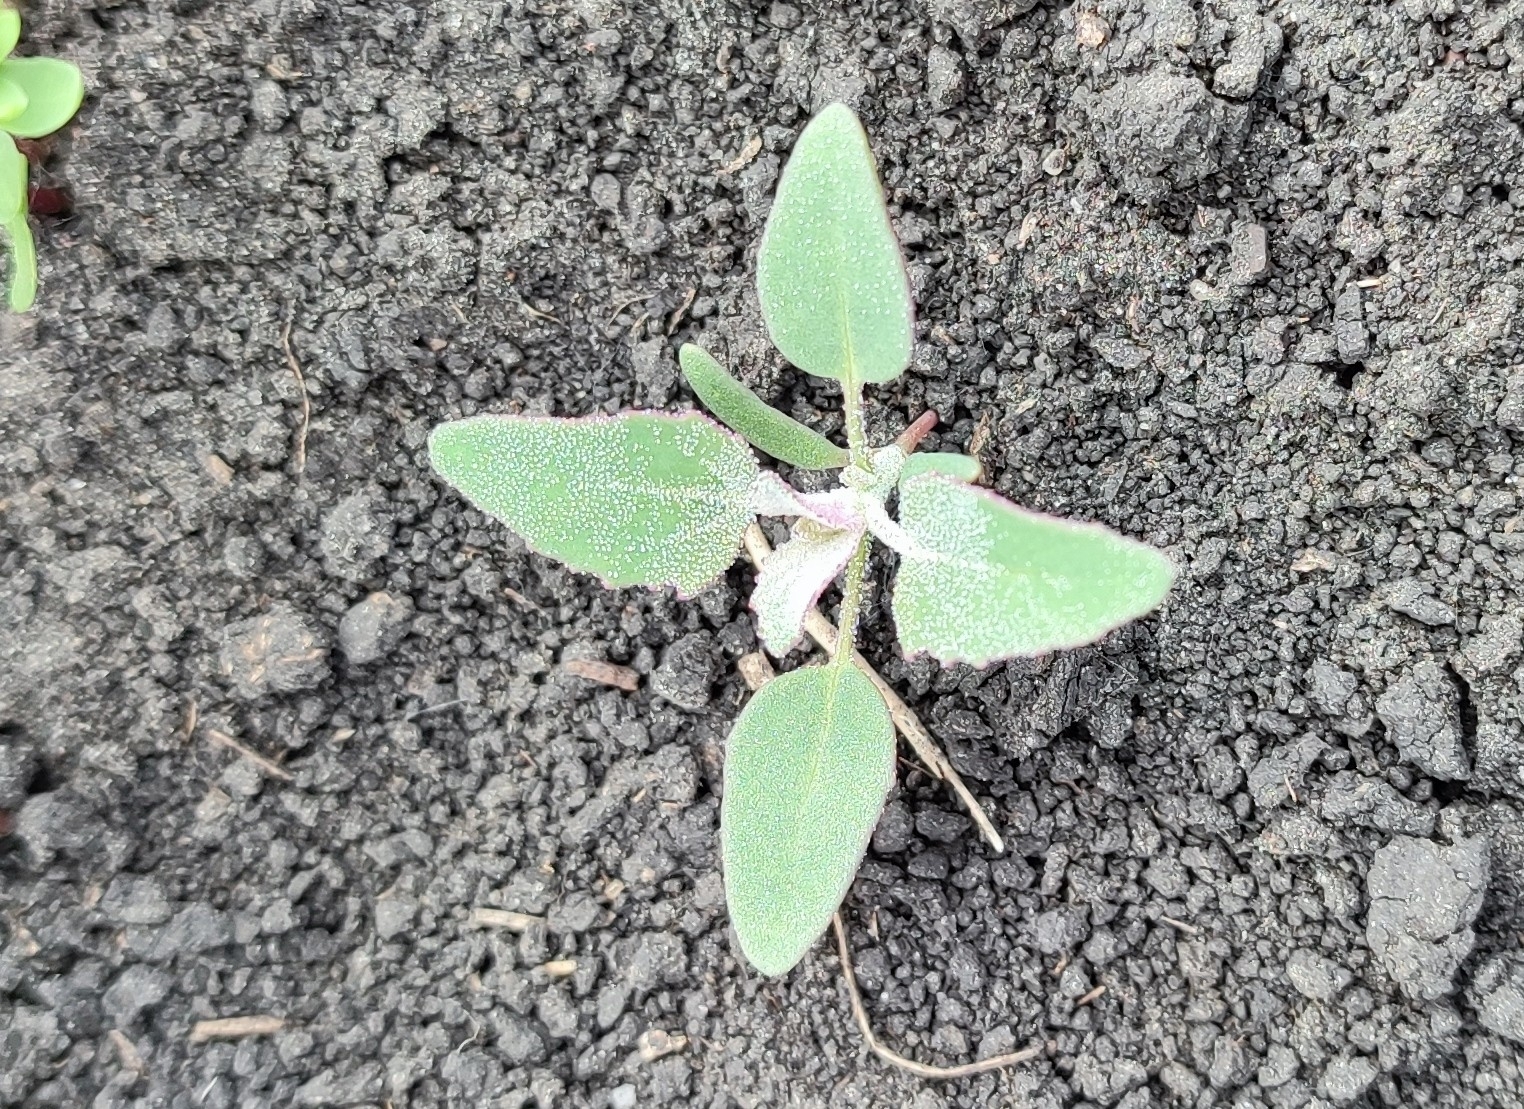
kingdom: Plantae
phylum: Tracheophyta
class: Magnoliopsida
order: Caryophyllales
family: Amaranthaceae
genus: Chenopodium
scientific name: Chenopodium album
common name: Fat-hen
